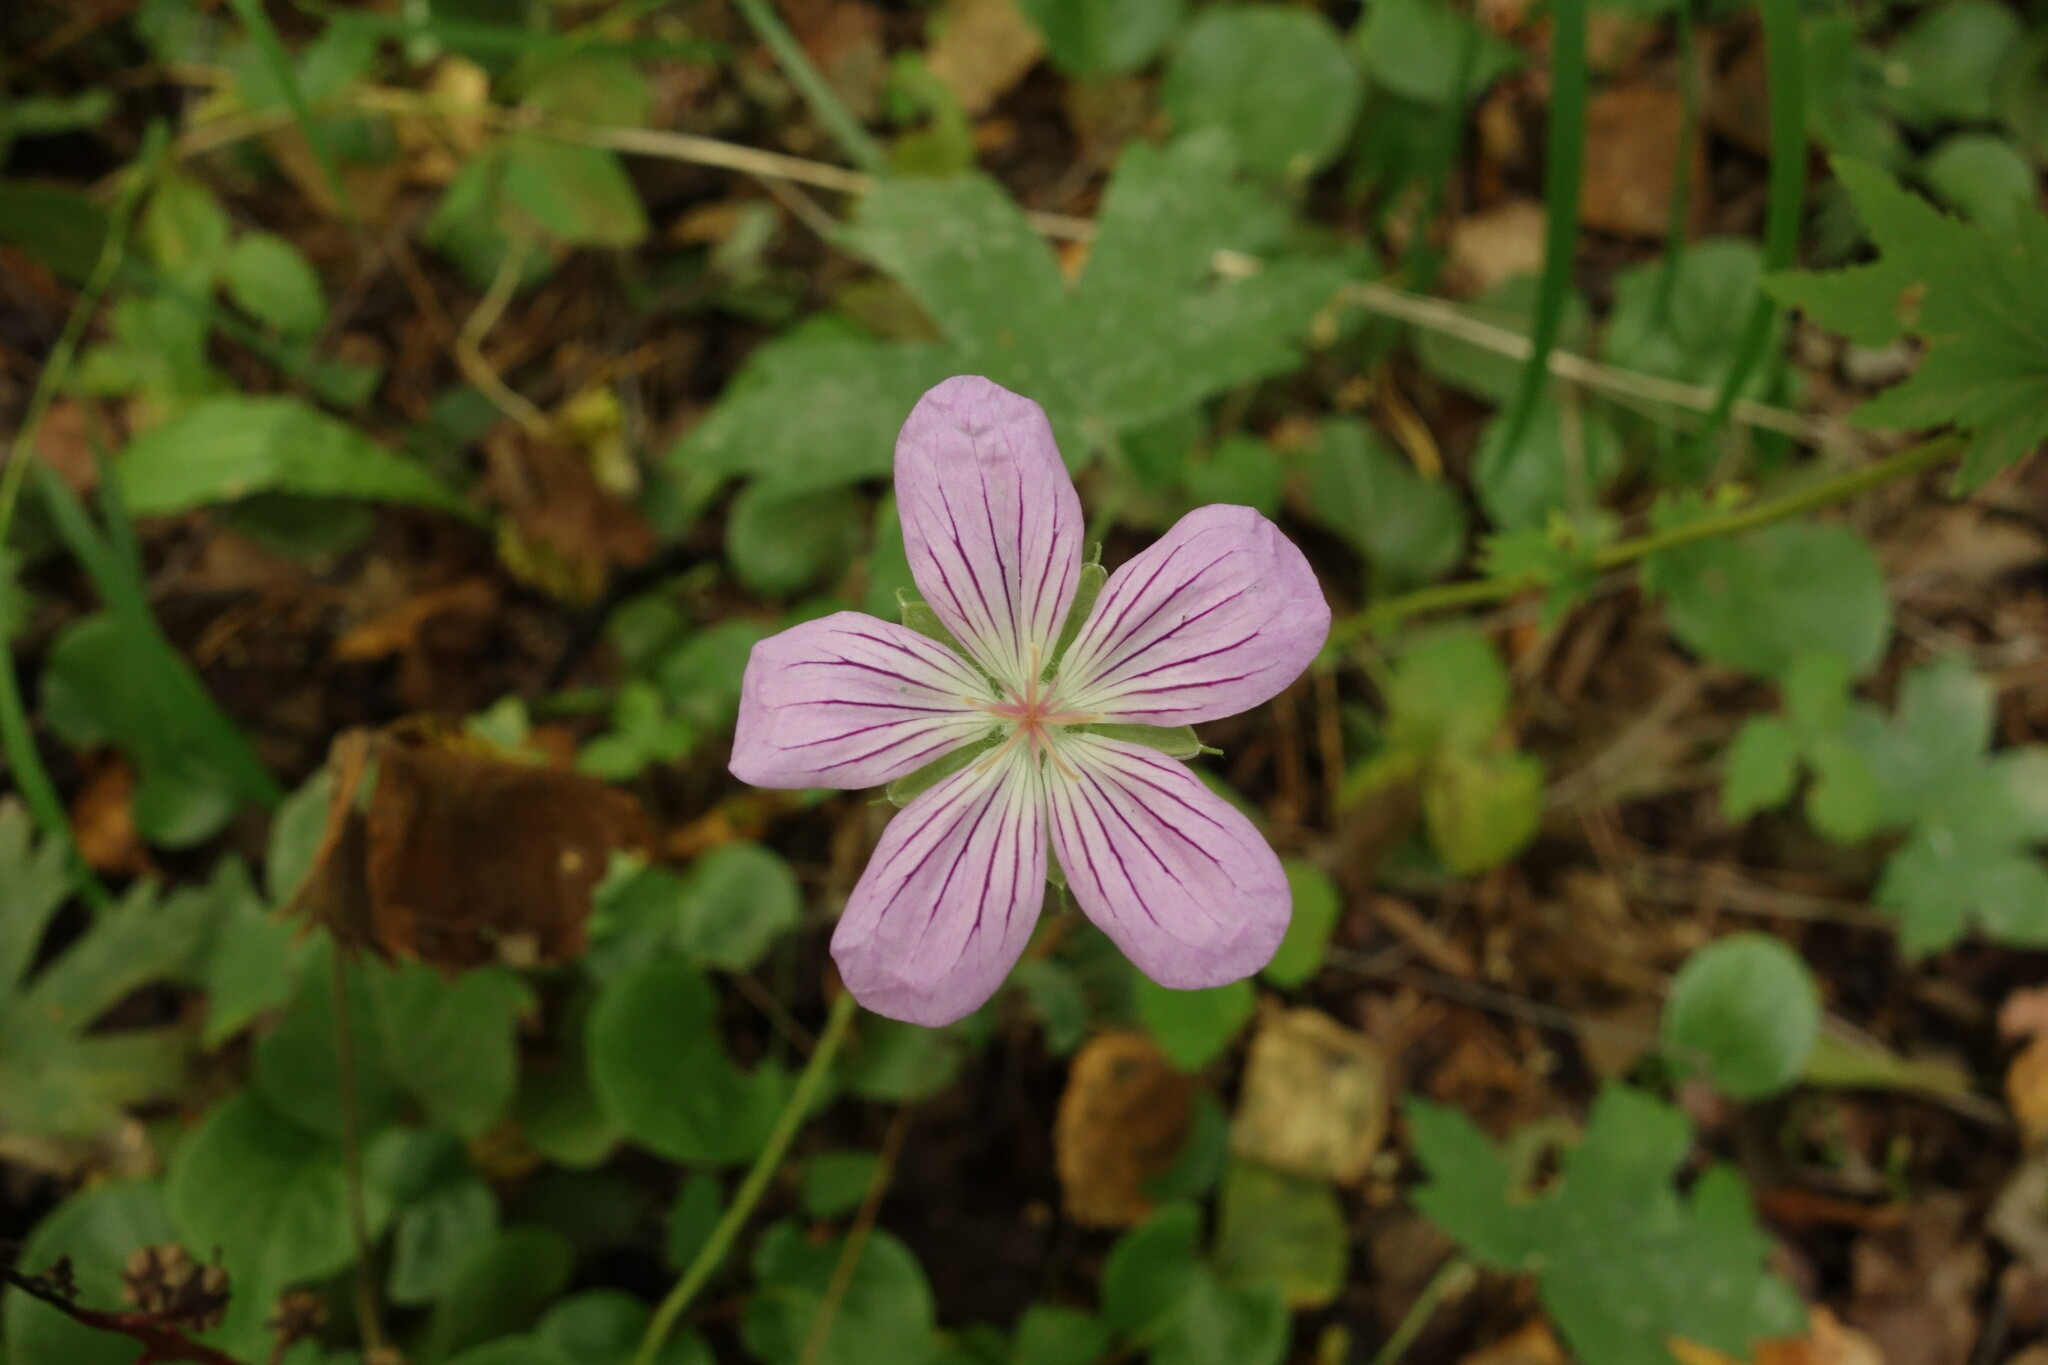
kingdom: Plantae
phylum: Tracheophyta
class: Magnoliopsida
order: Geraniales
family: Geraniaceae
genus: Geranium
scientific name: Geranium wlassovianum
